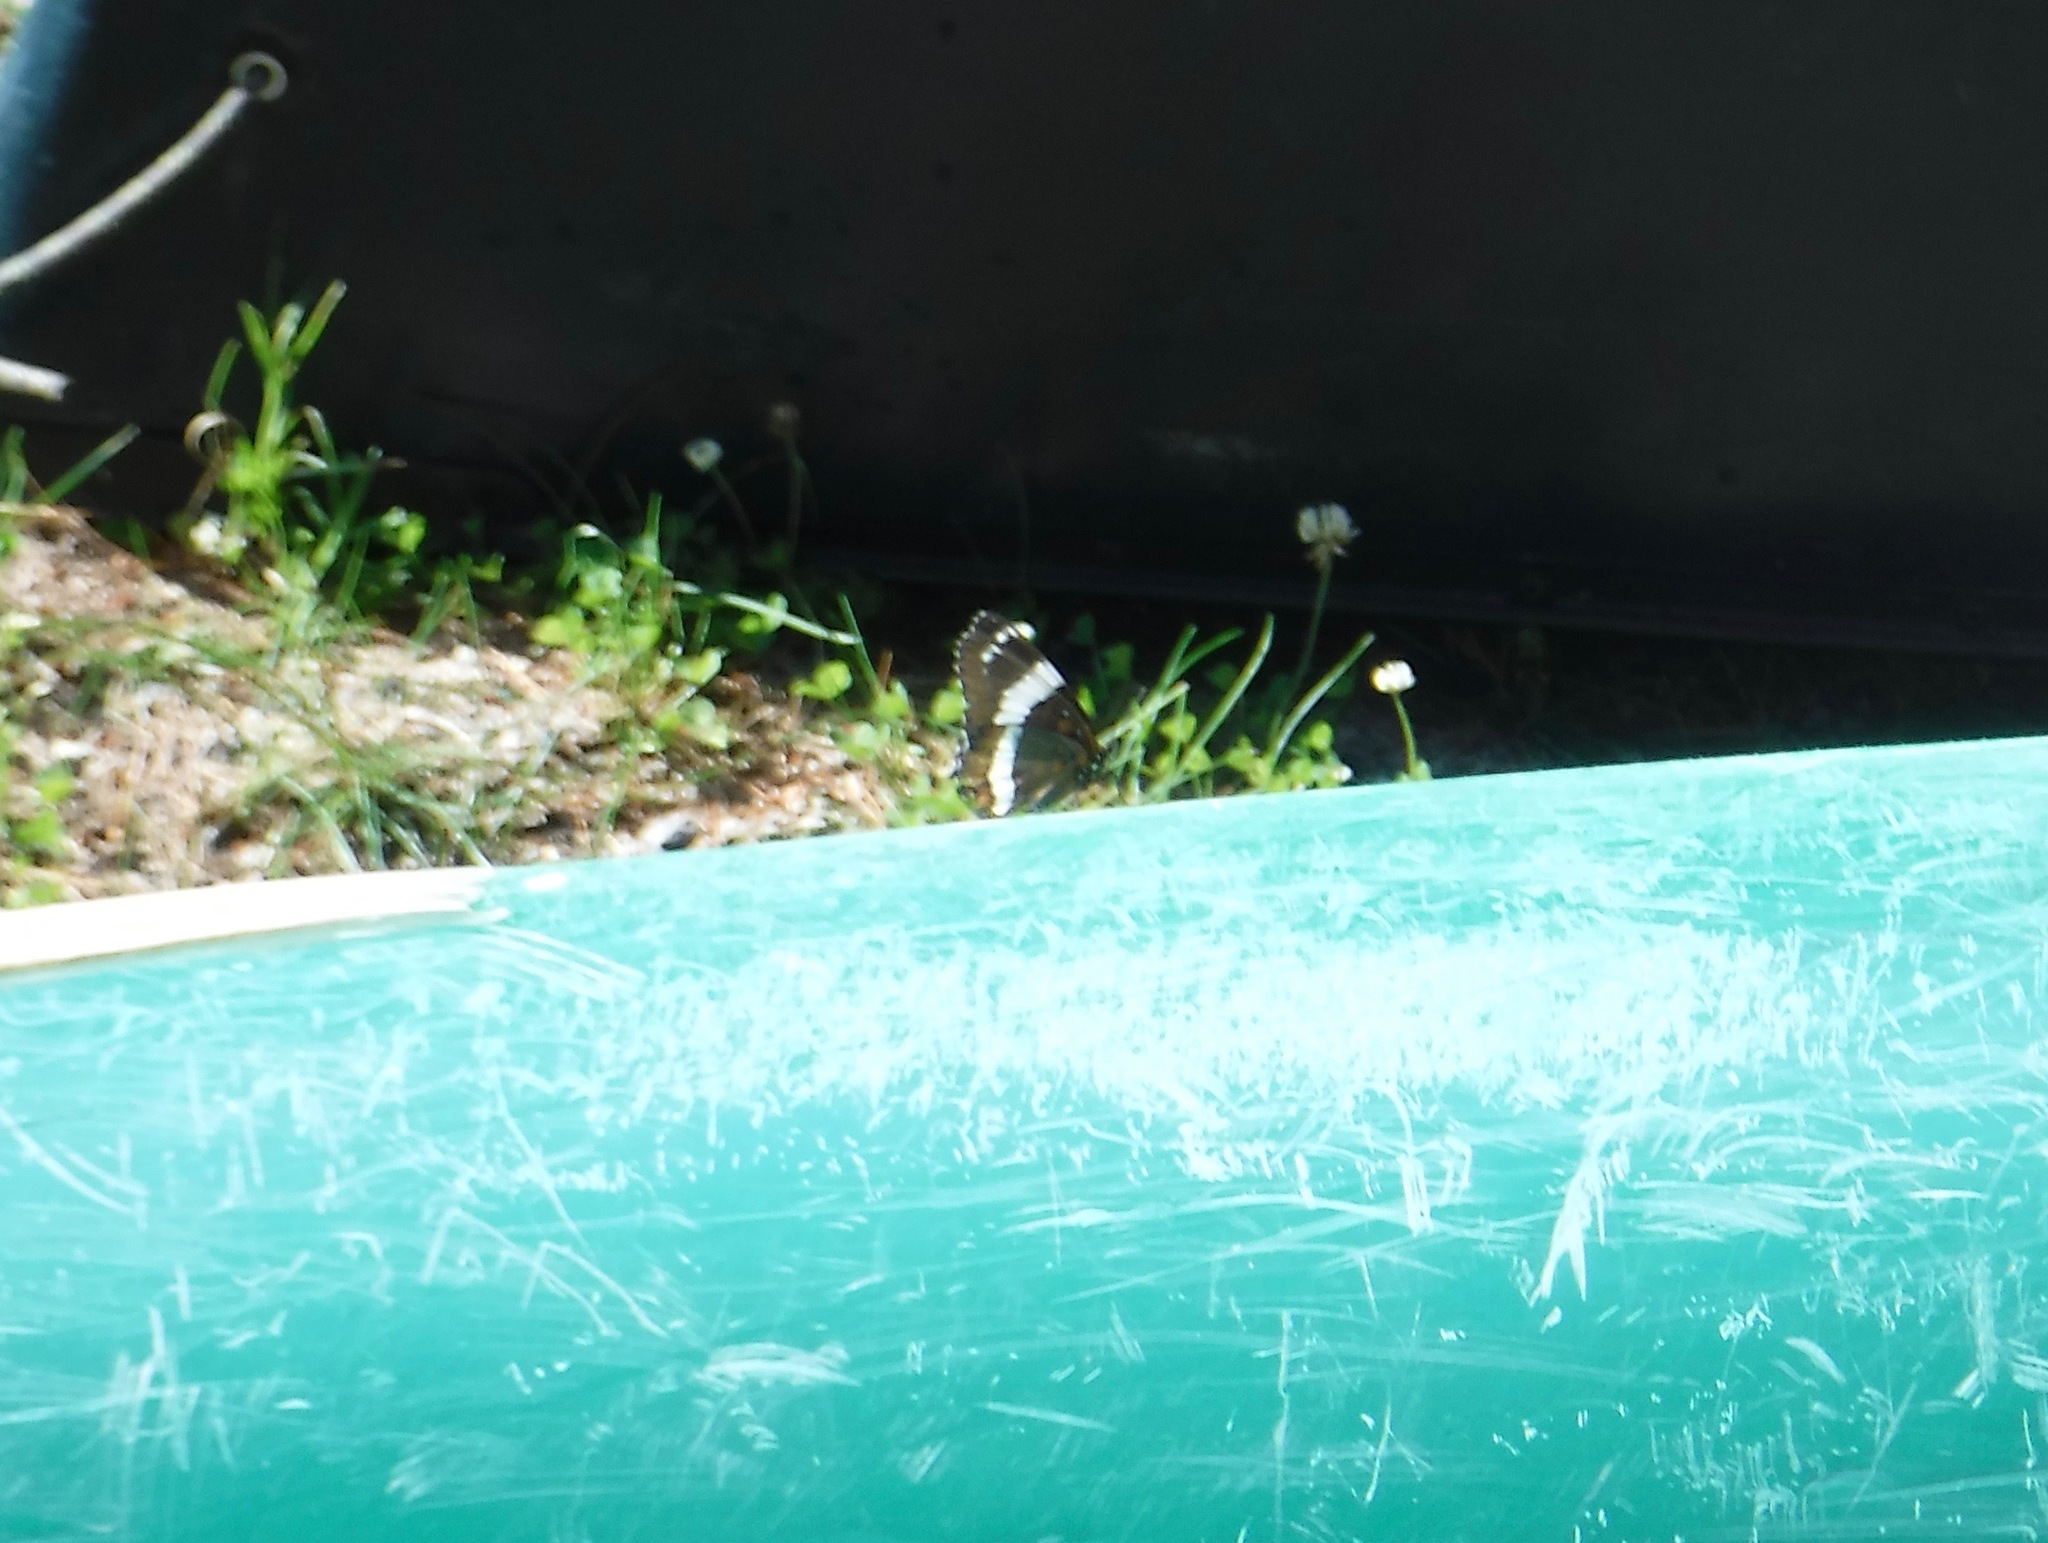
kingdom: Animalia
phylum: Arthropoda
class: Insecta
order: Lepidoptera
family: Nymphalidae
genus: Limenitis
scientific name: Limenitis arthemis
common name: Red-spotted admiral
